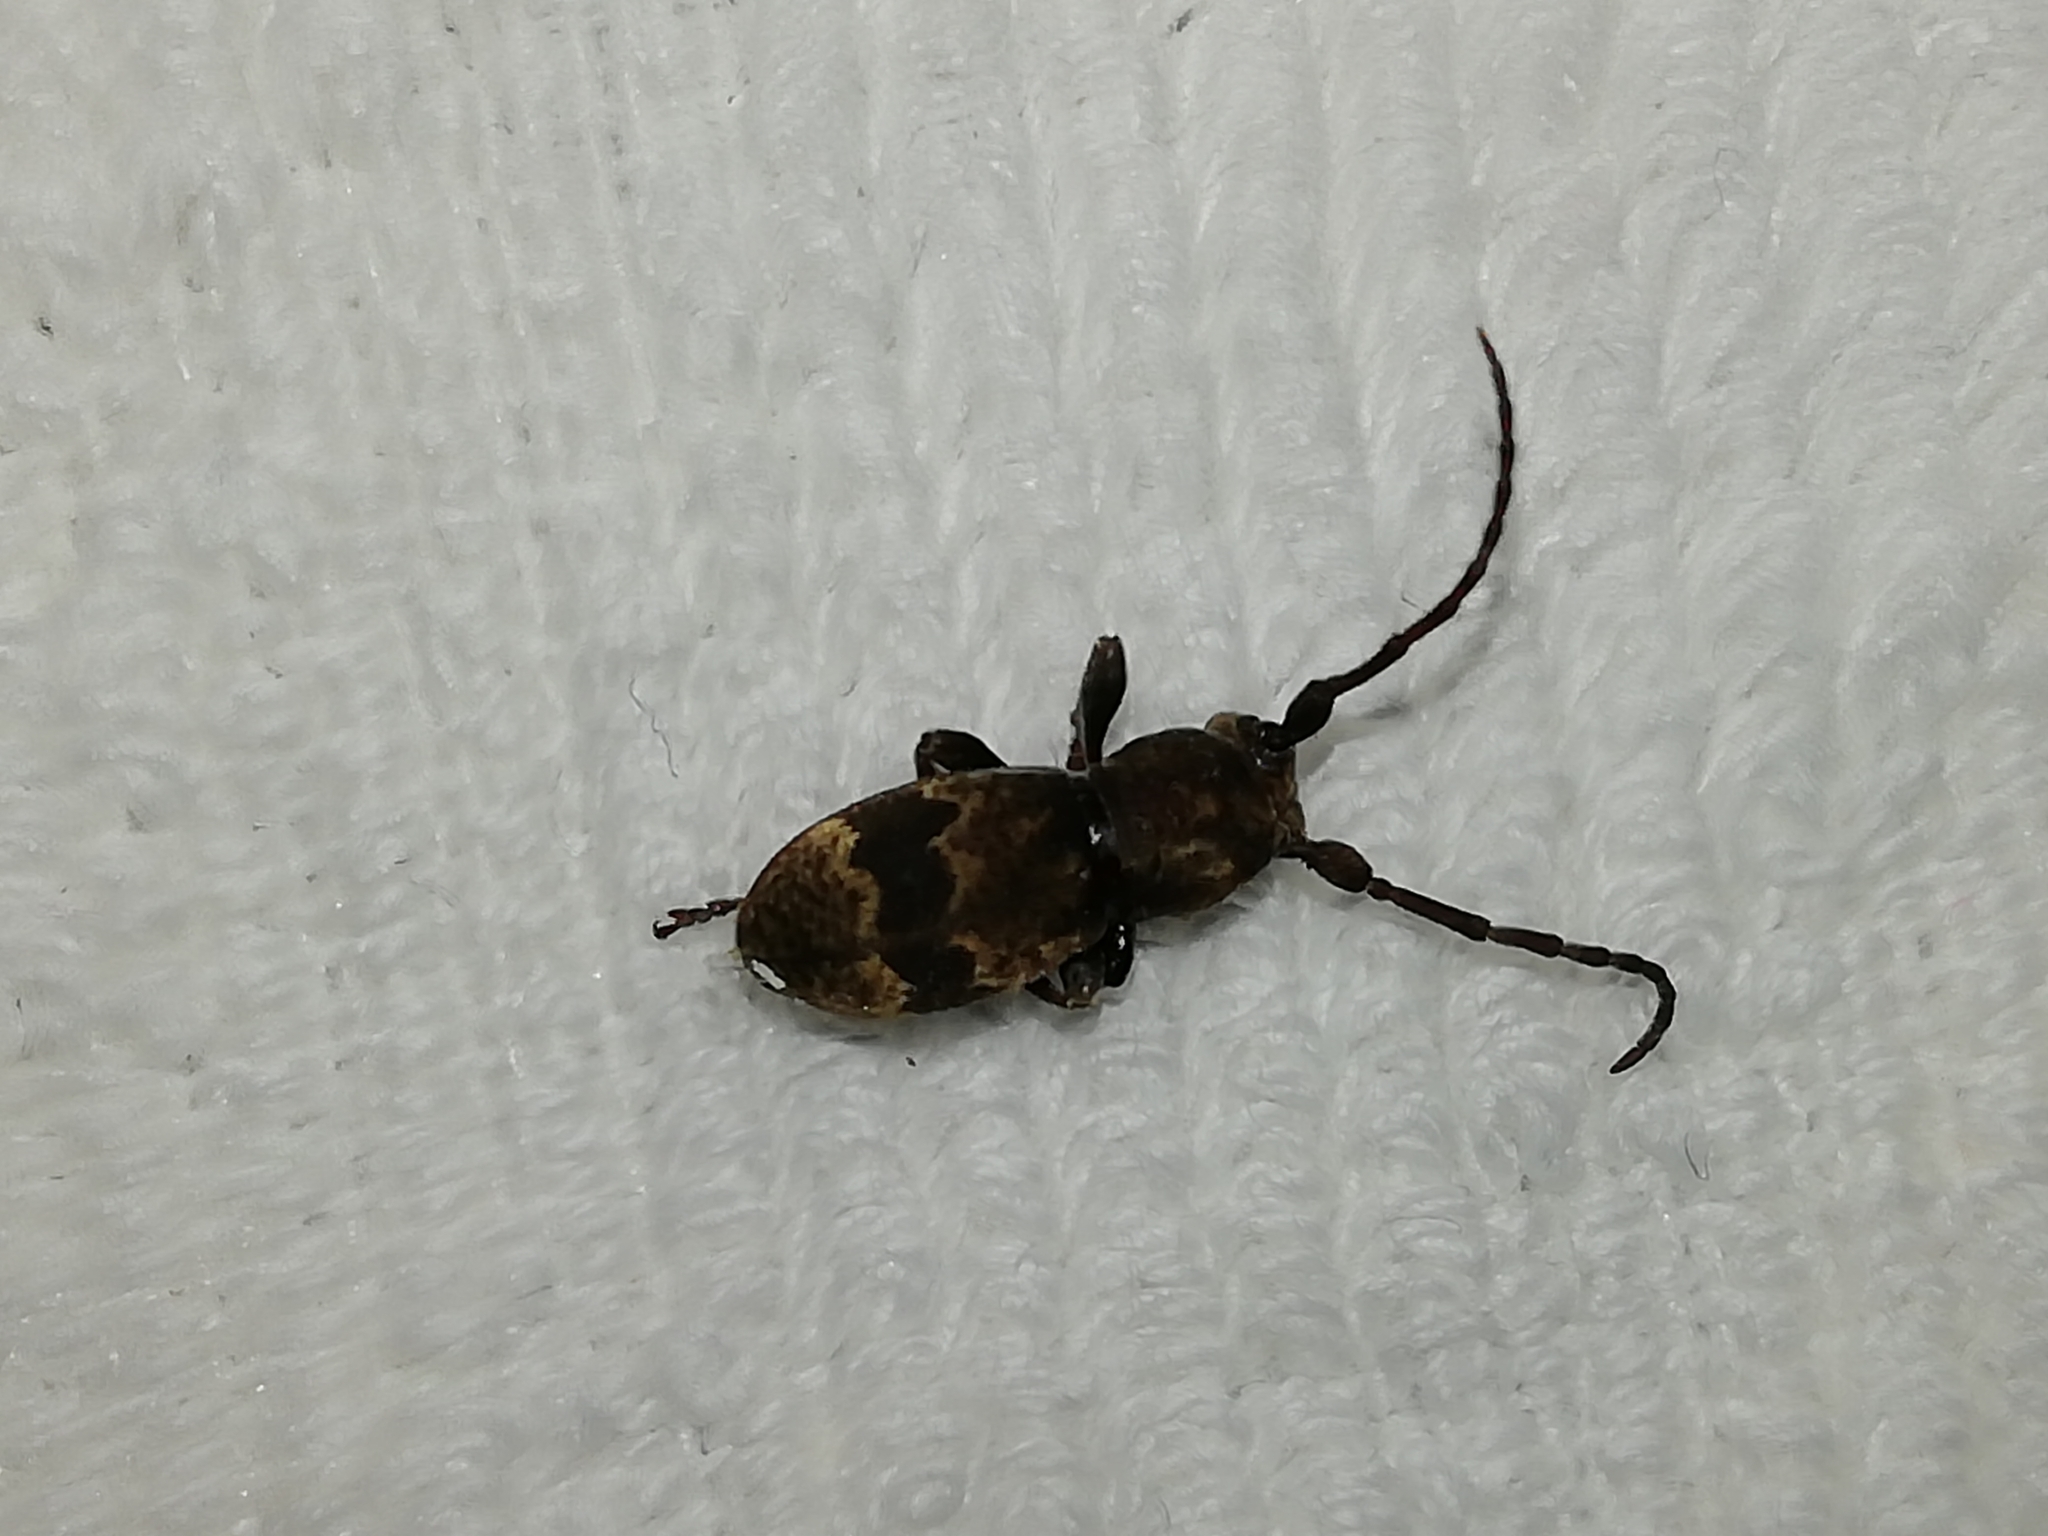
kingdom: Animalia
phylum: Arthropoda
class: Insecta
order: Coleoptera
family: Cerambycidae
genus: Parmena
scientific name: Parmena unifasciata
